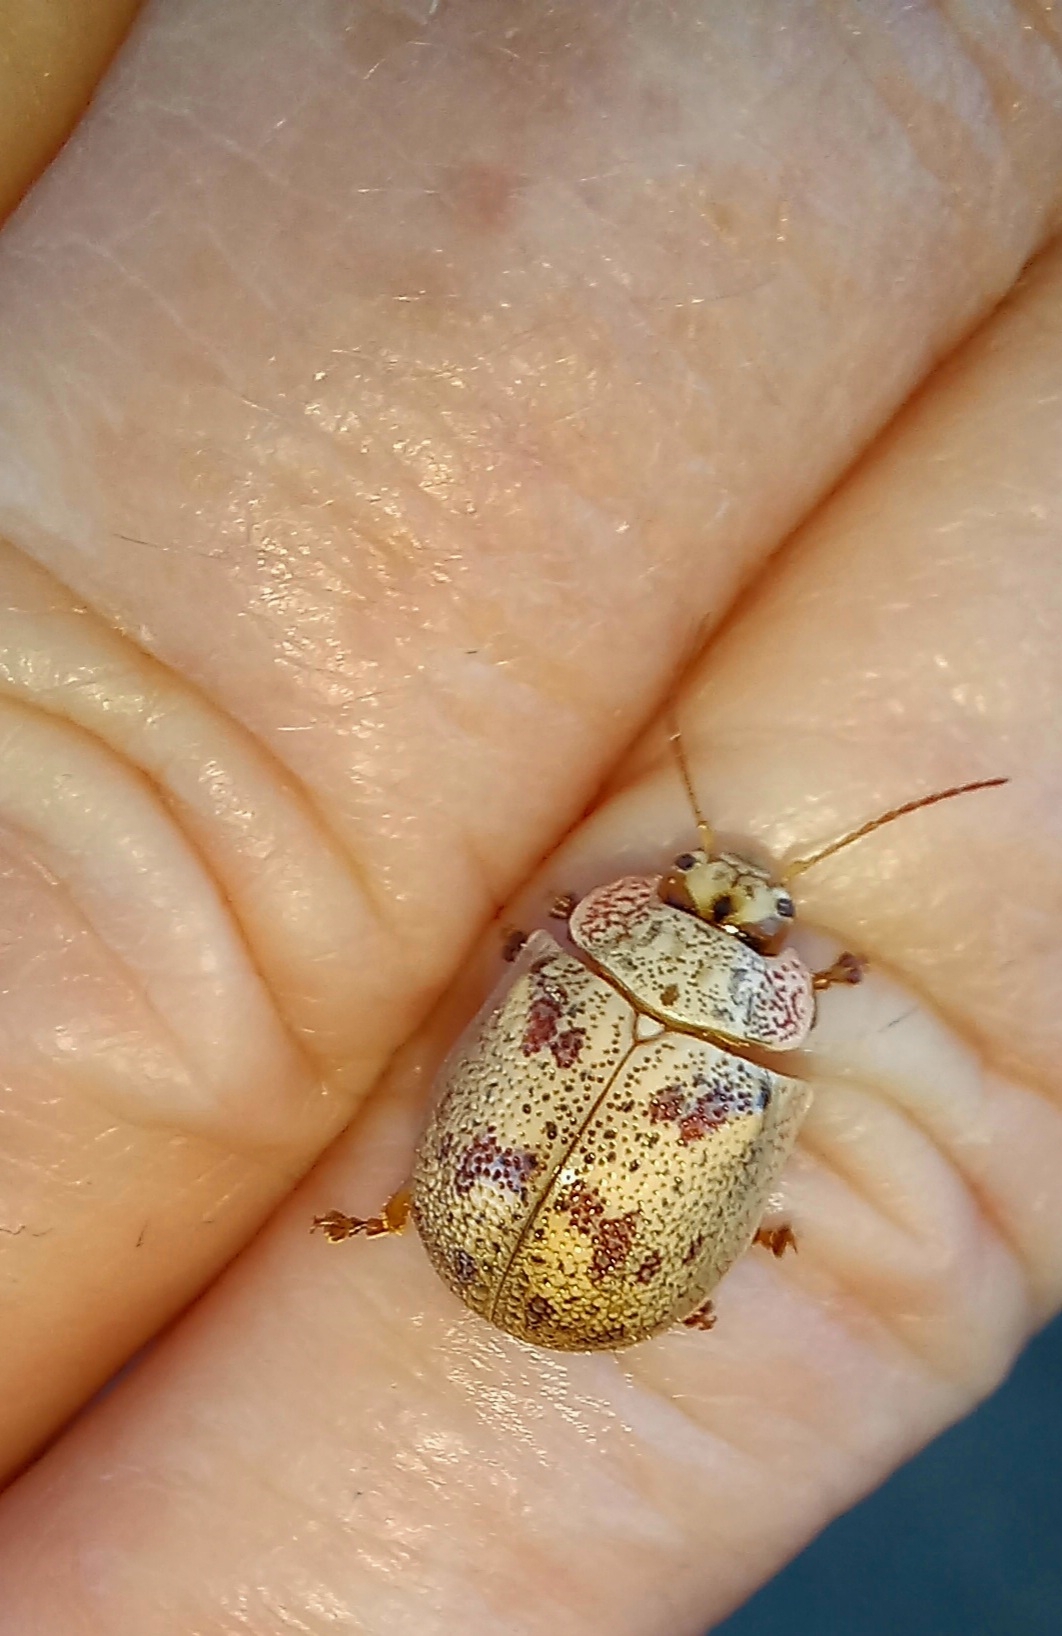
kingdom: Animalia
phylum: Arthropoda
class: Insecta
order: Coleoptera
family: Chrysomelidae
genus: Paropsis
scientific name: Paropsis charybdis
